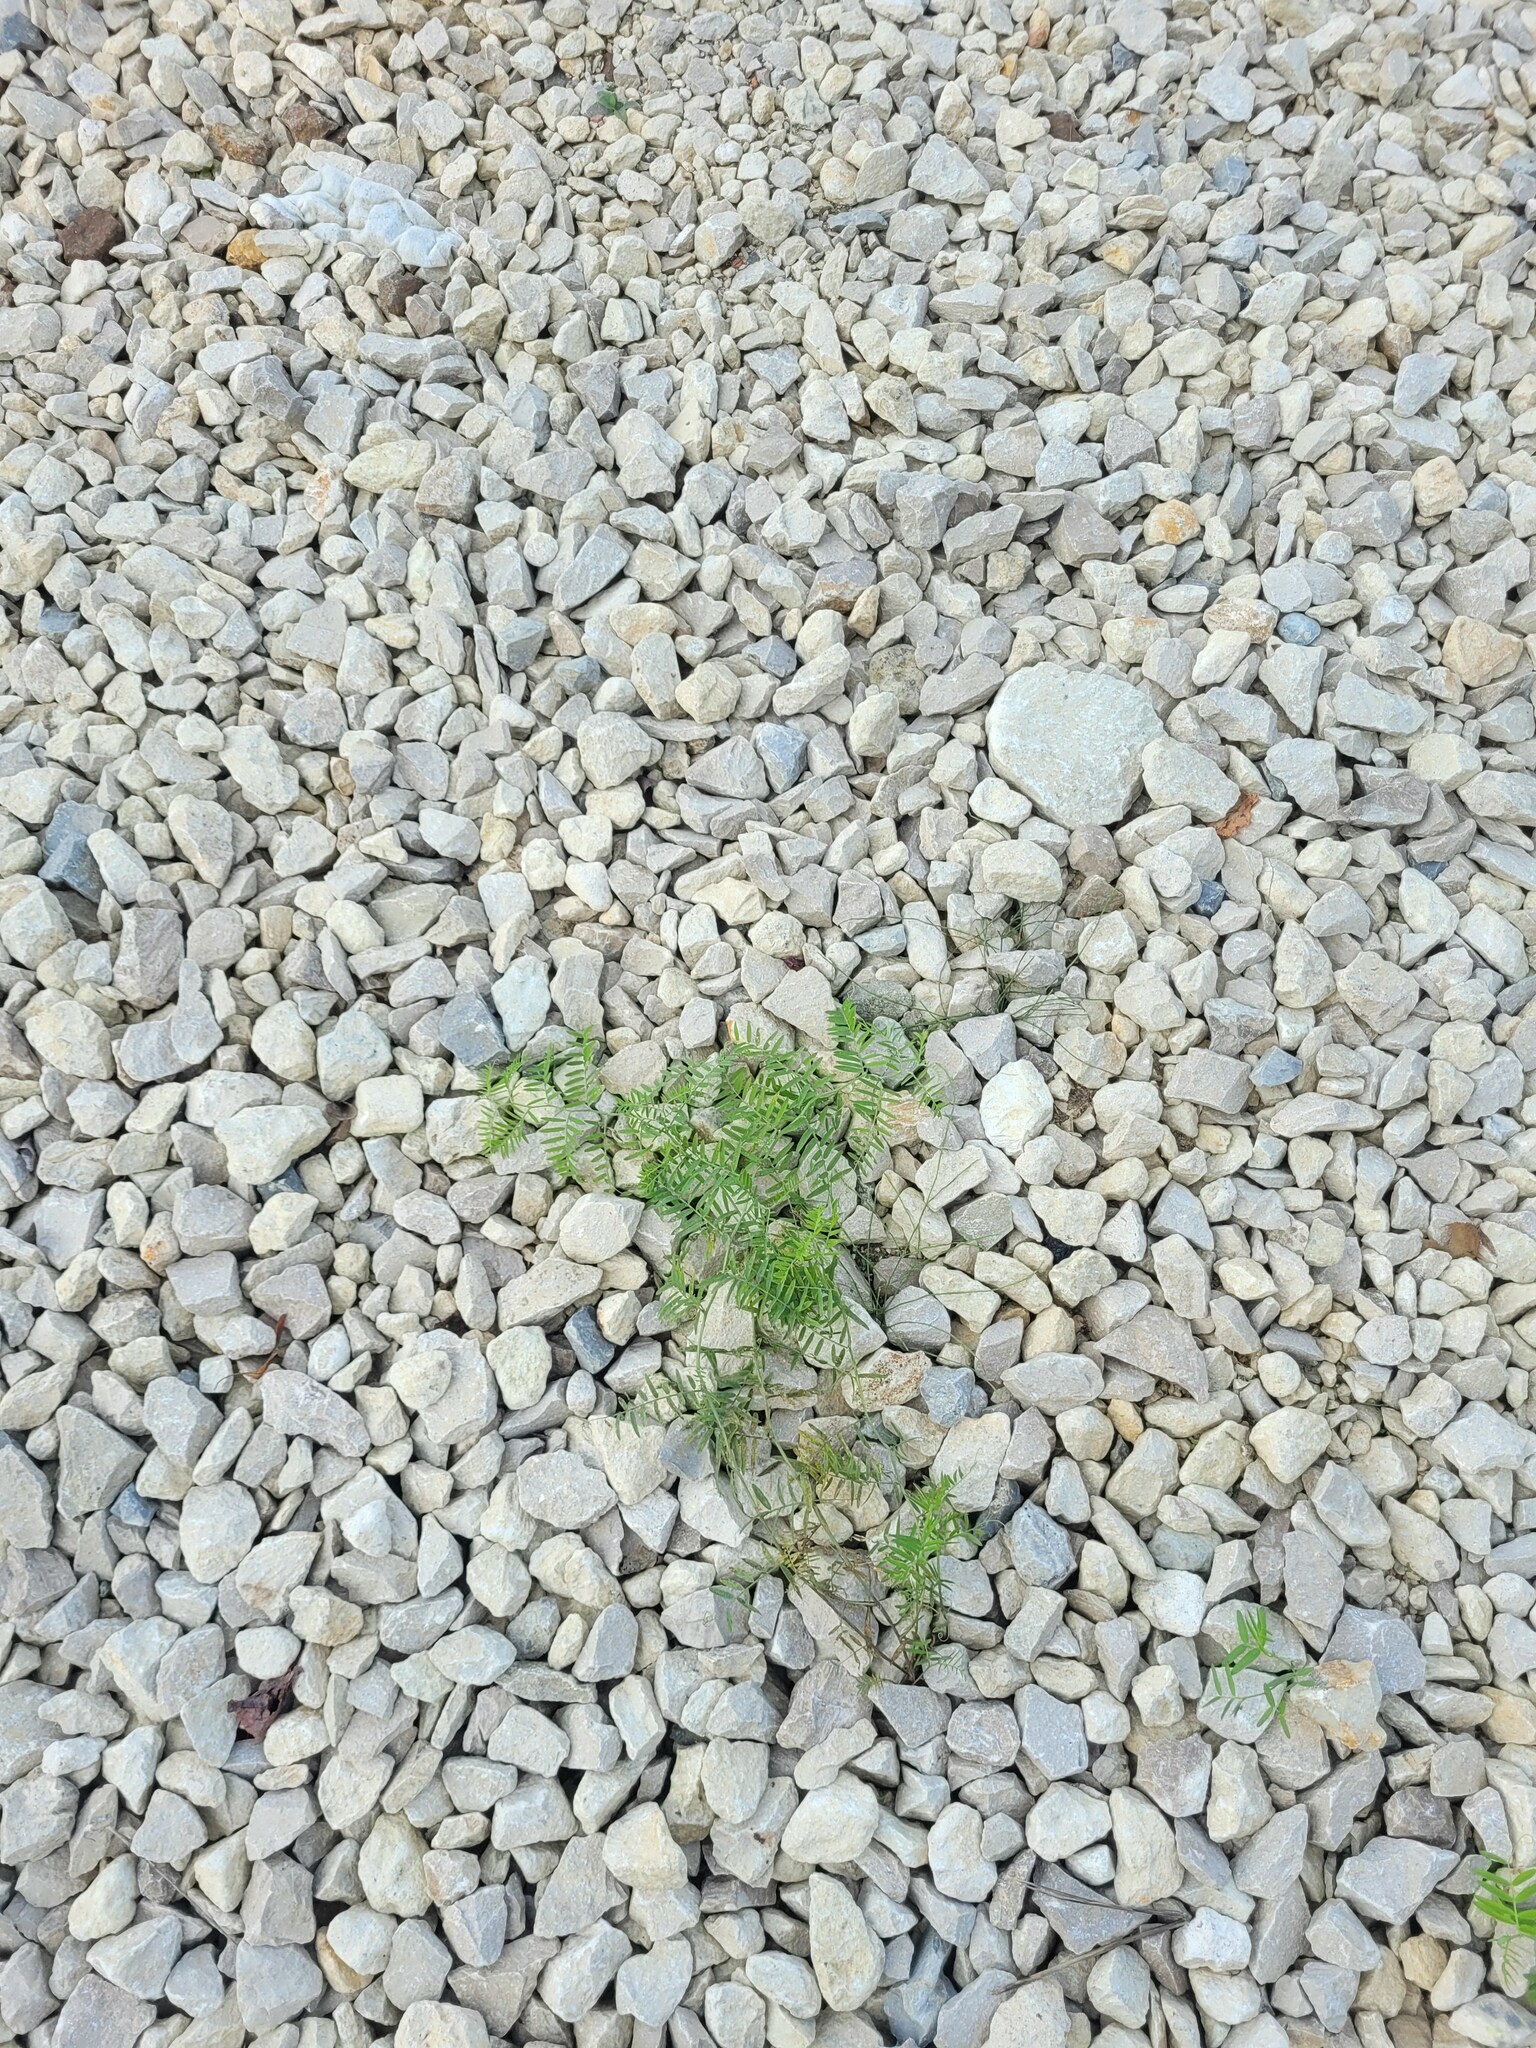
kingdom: Plantae
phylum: Tracheophyta
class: Magnoliopsida
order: Fabales
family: Fabaceae
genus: Vicia
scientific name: Vicia cracca
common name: Bird vetch
